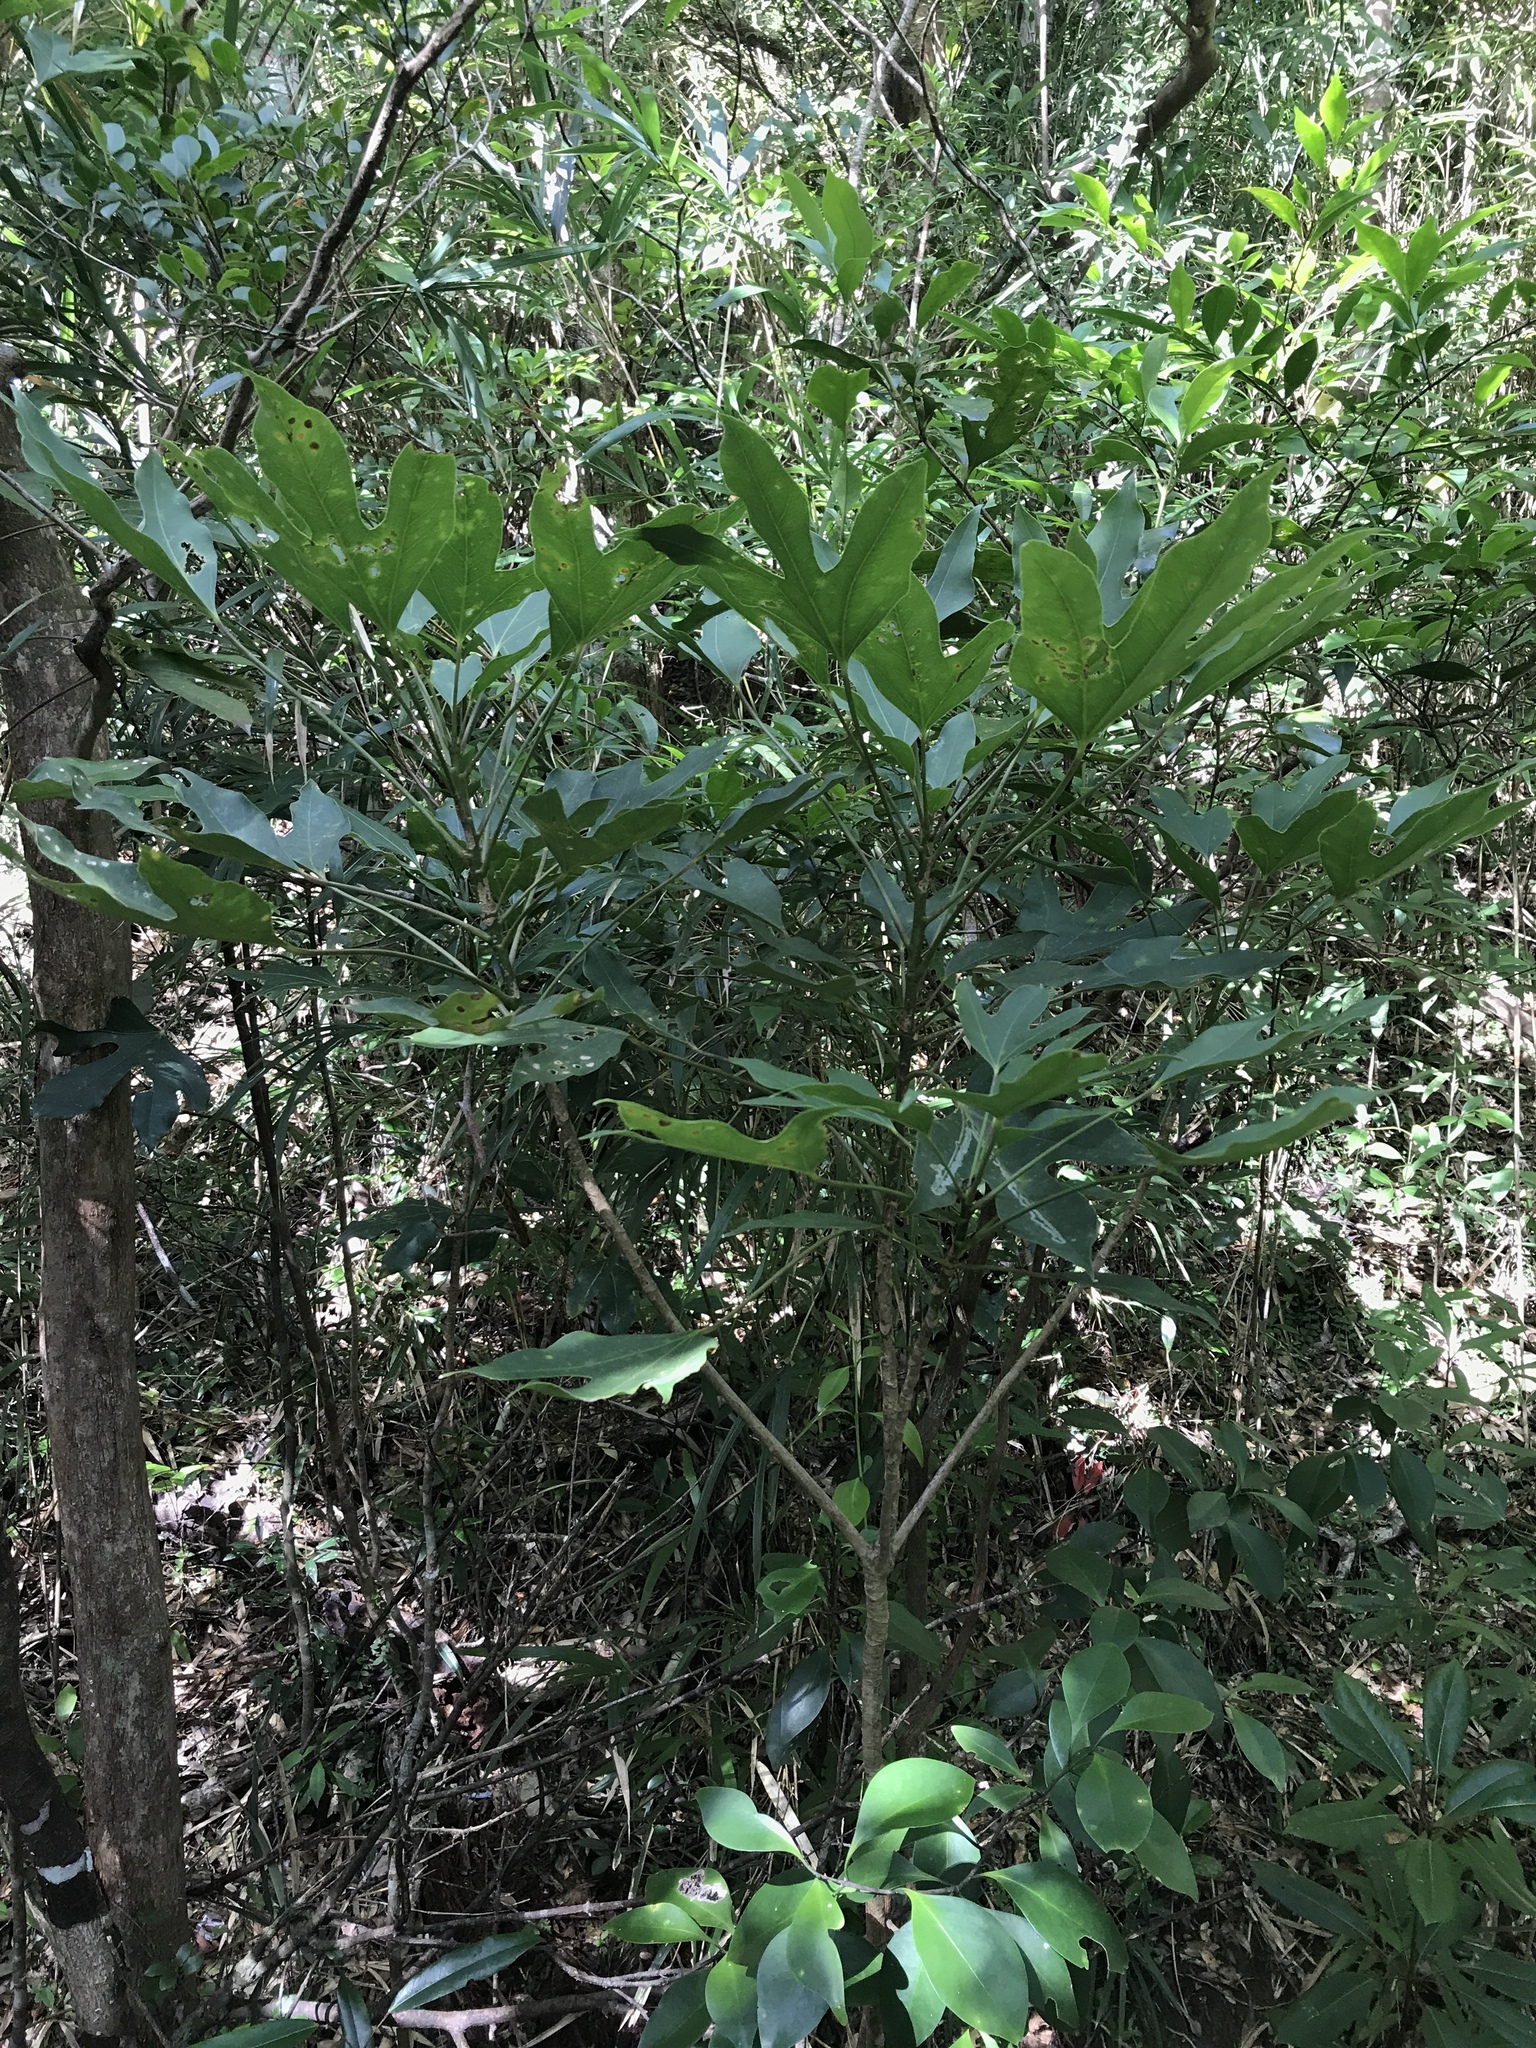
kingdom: Plantae
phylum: Tracheophyta
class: Magnoliopsida
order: Apiales
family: Araliaceae
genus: Dendropanax
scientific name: Dendropanax trifidus
